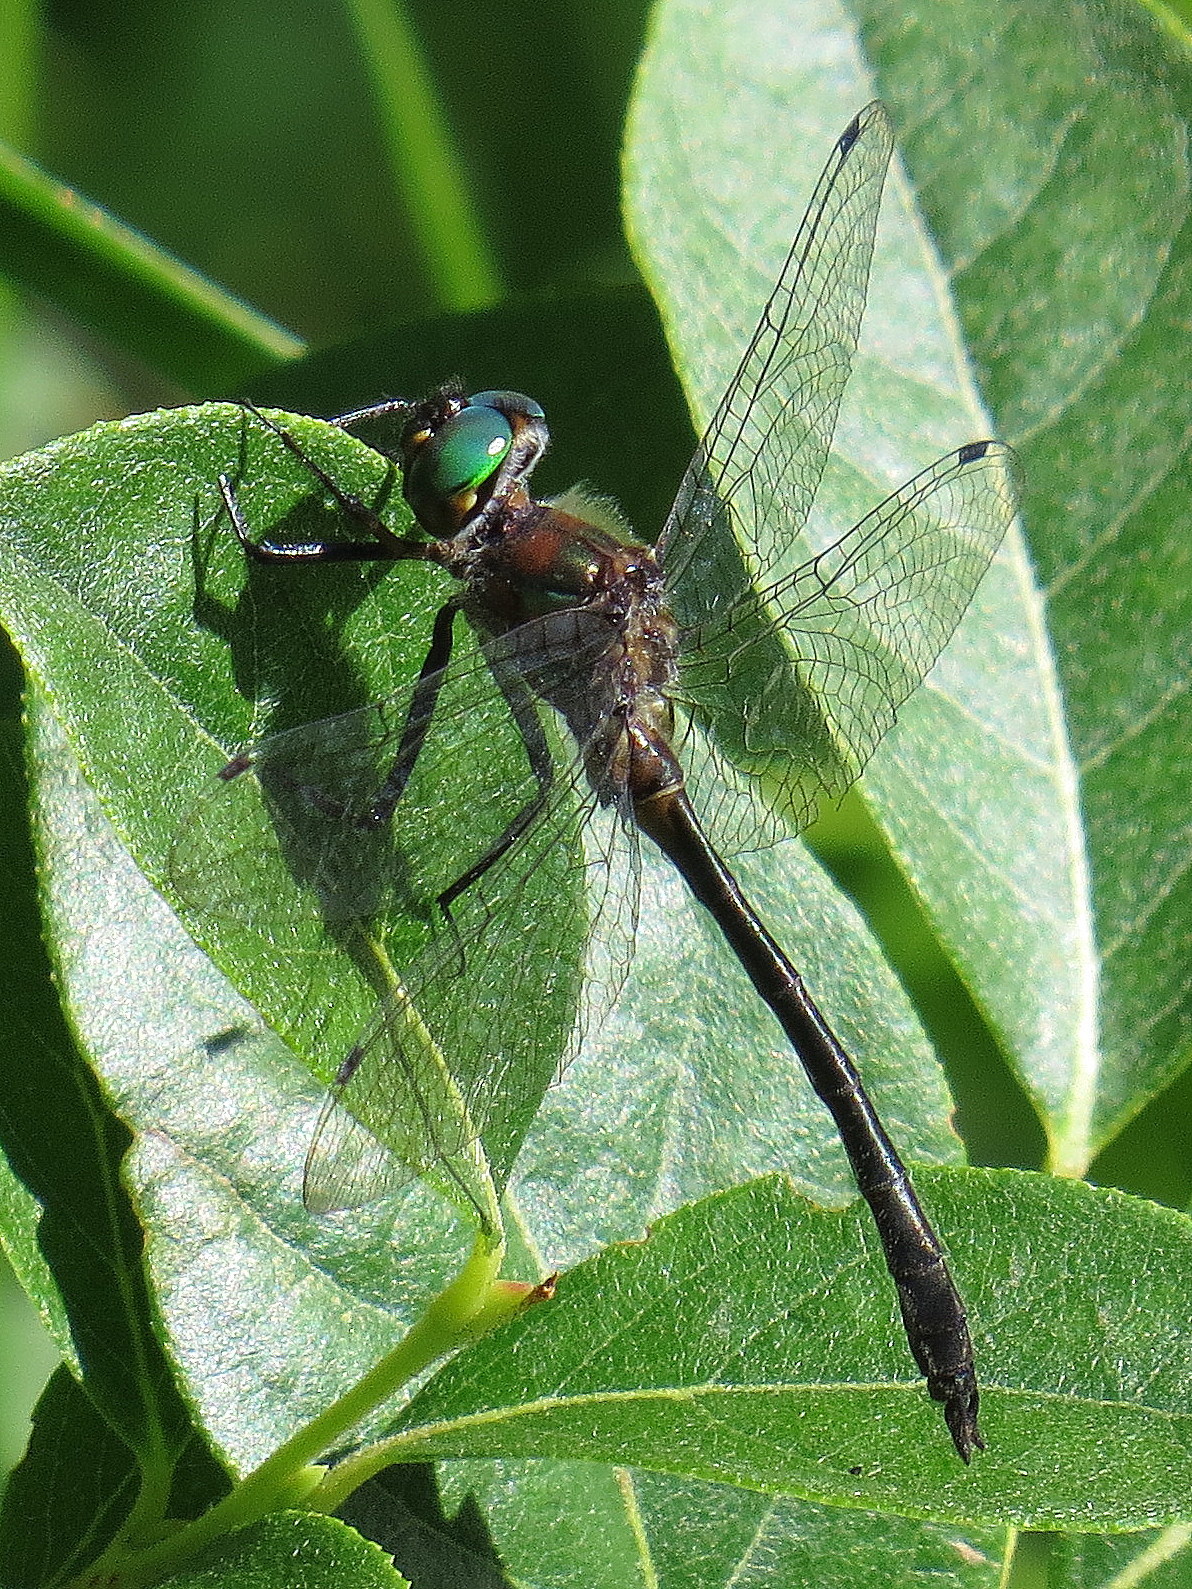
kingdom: Animalia
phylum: Arthropoda
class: Insecta
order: Odonata
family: Corduliidae
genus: Dorocordulia
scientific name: Dorocordulia lepida
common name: Petite emerald
